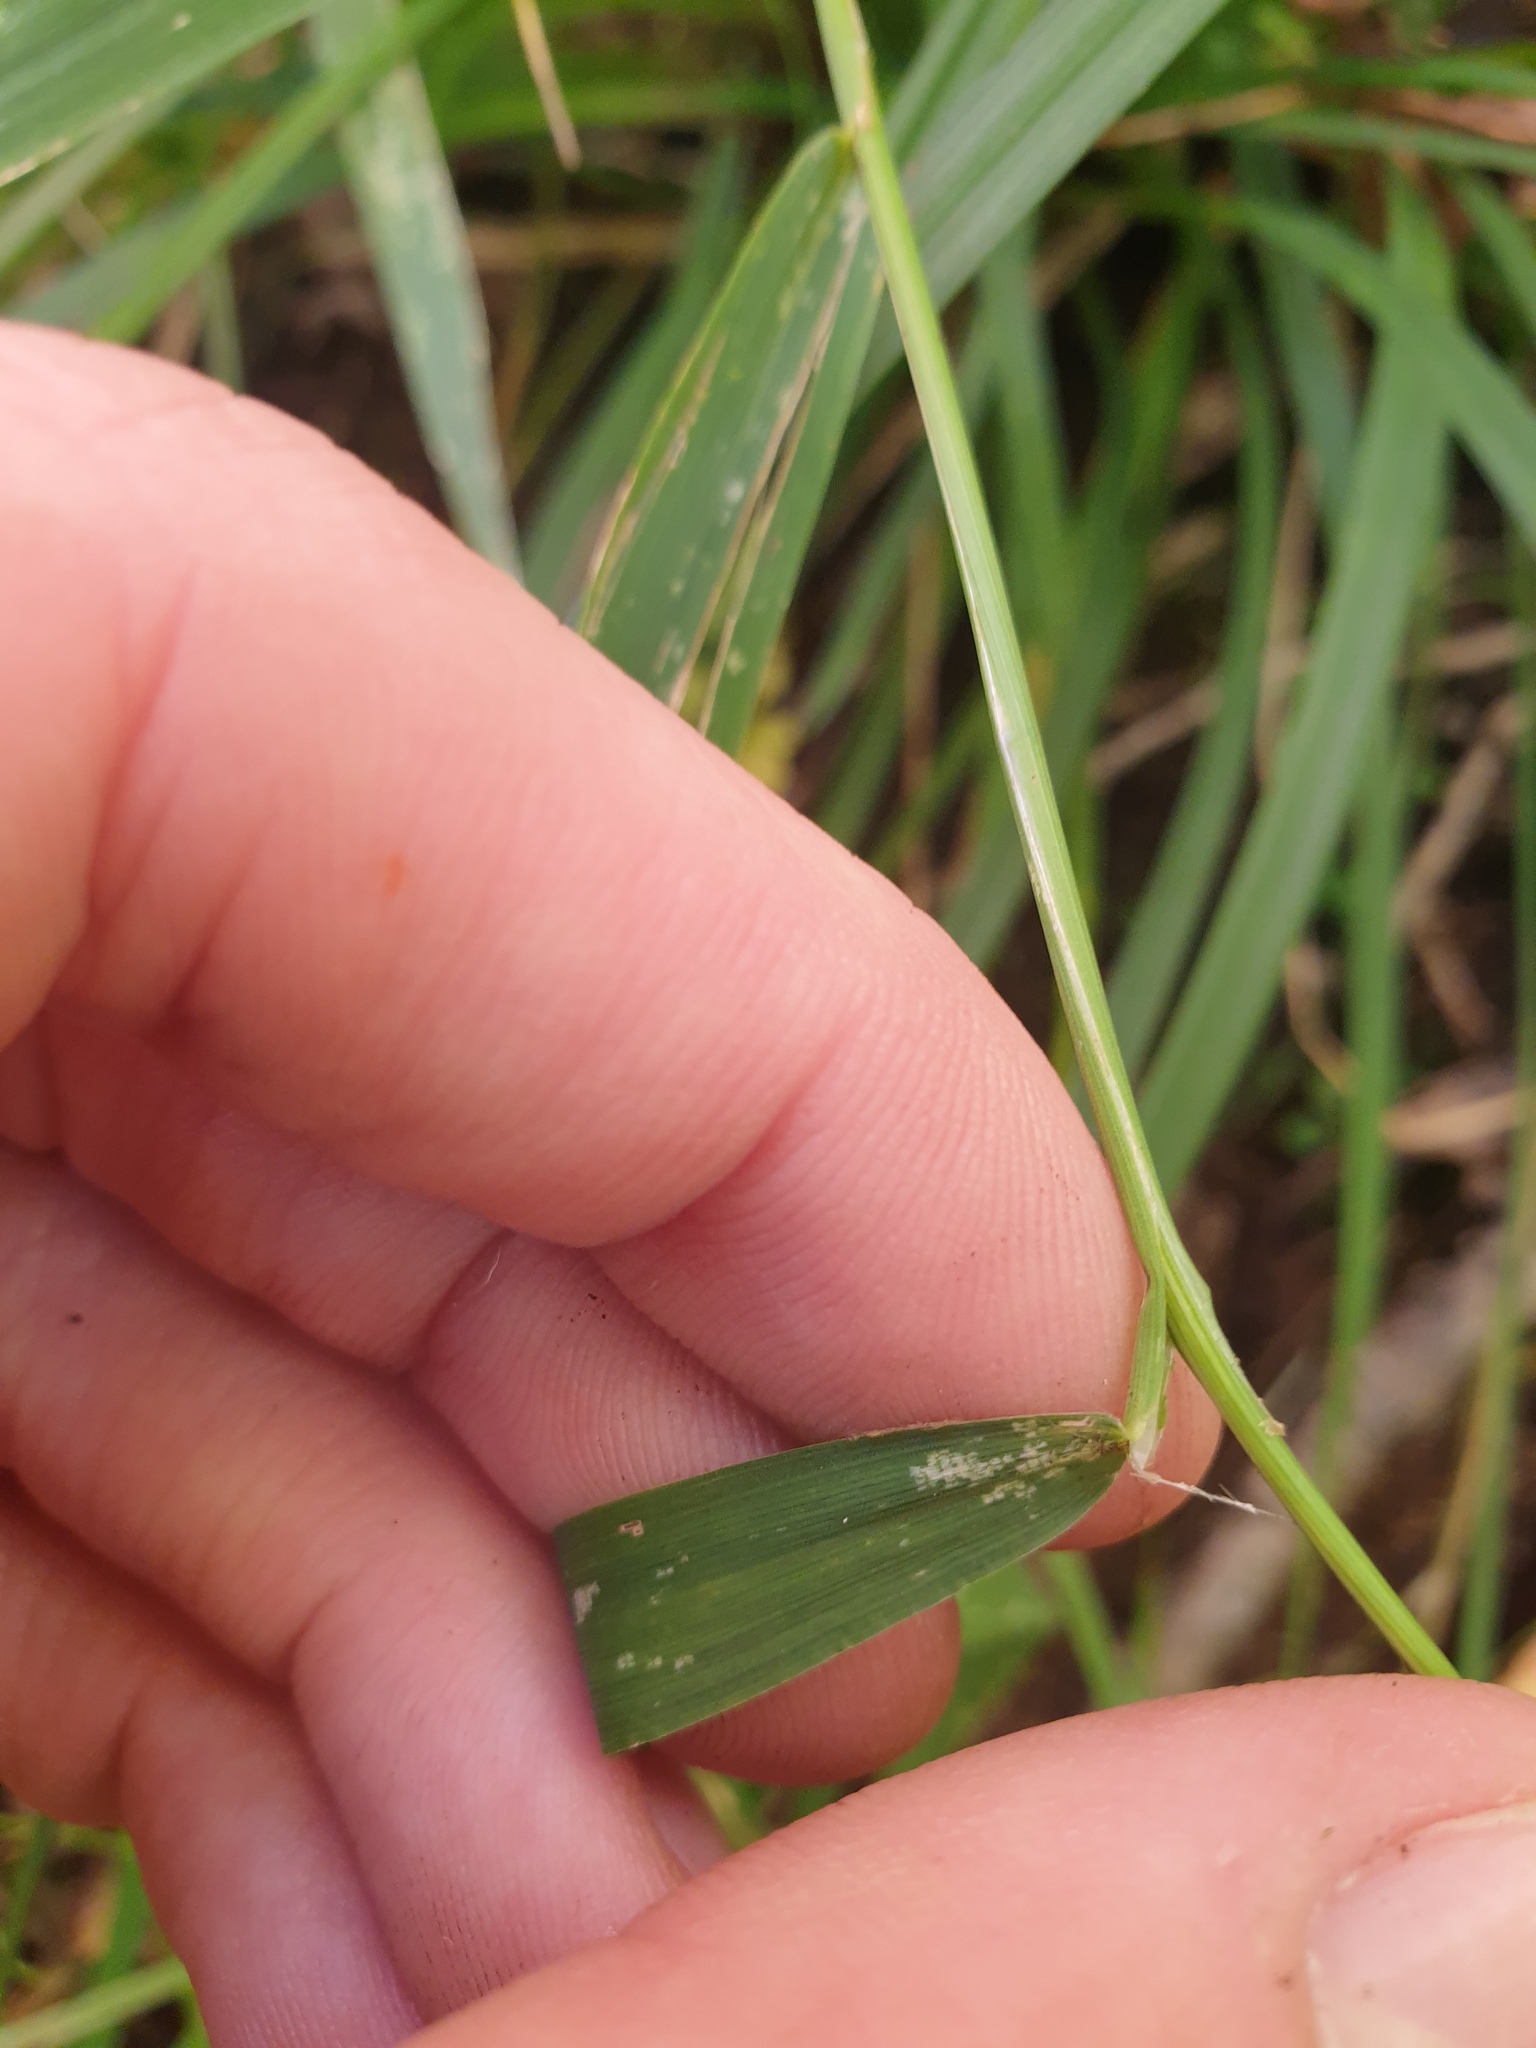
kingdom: Plantae
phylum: Tracheophyta
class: Liliopsida
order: Poales
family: Poaceae
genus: Cinna
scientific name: Cinna latifolia
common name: Drooping woodreed
